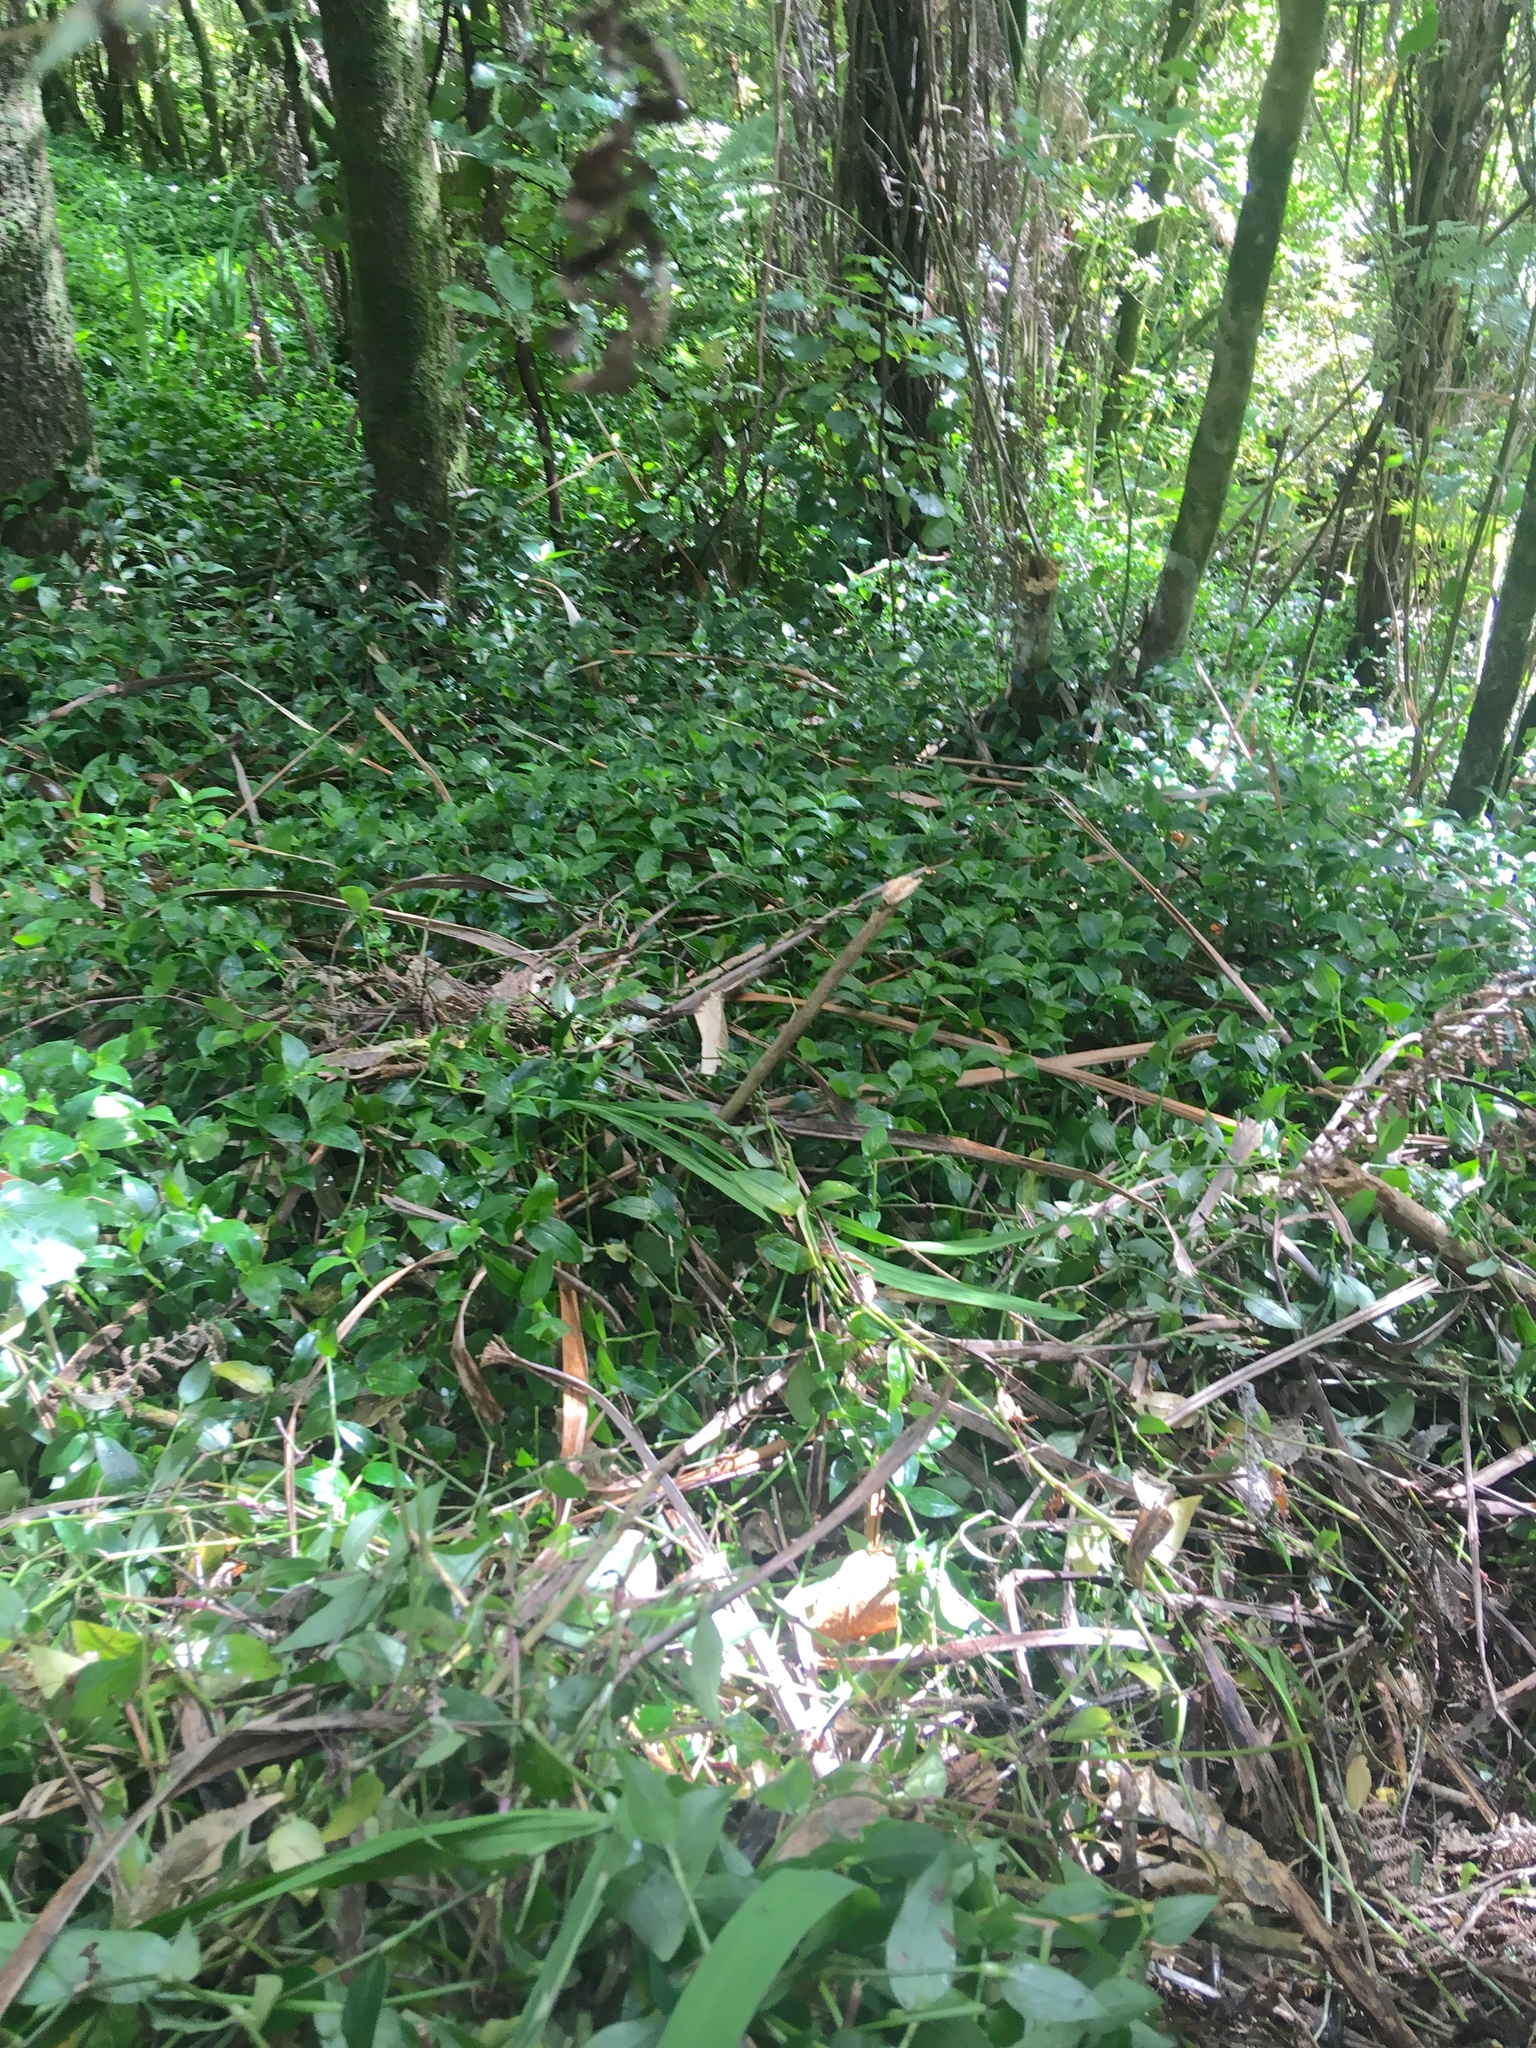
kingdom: Plantae
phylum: Tracheophyta
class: Liliopsida
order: Commelinales
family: Commelinaceae
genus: Tradescantia
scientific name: Tradescantia fluminensis
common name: Wandering-jew
